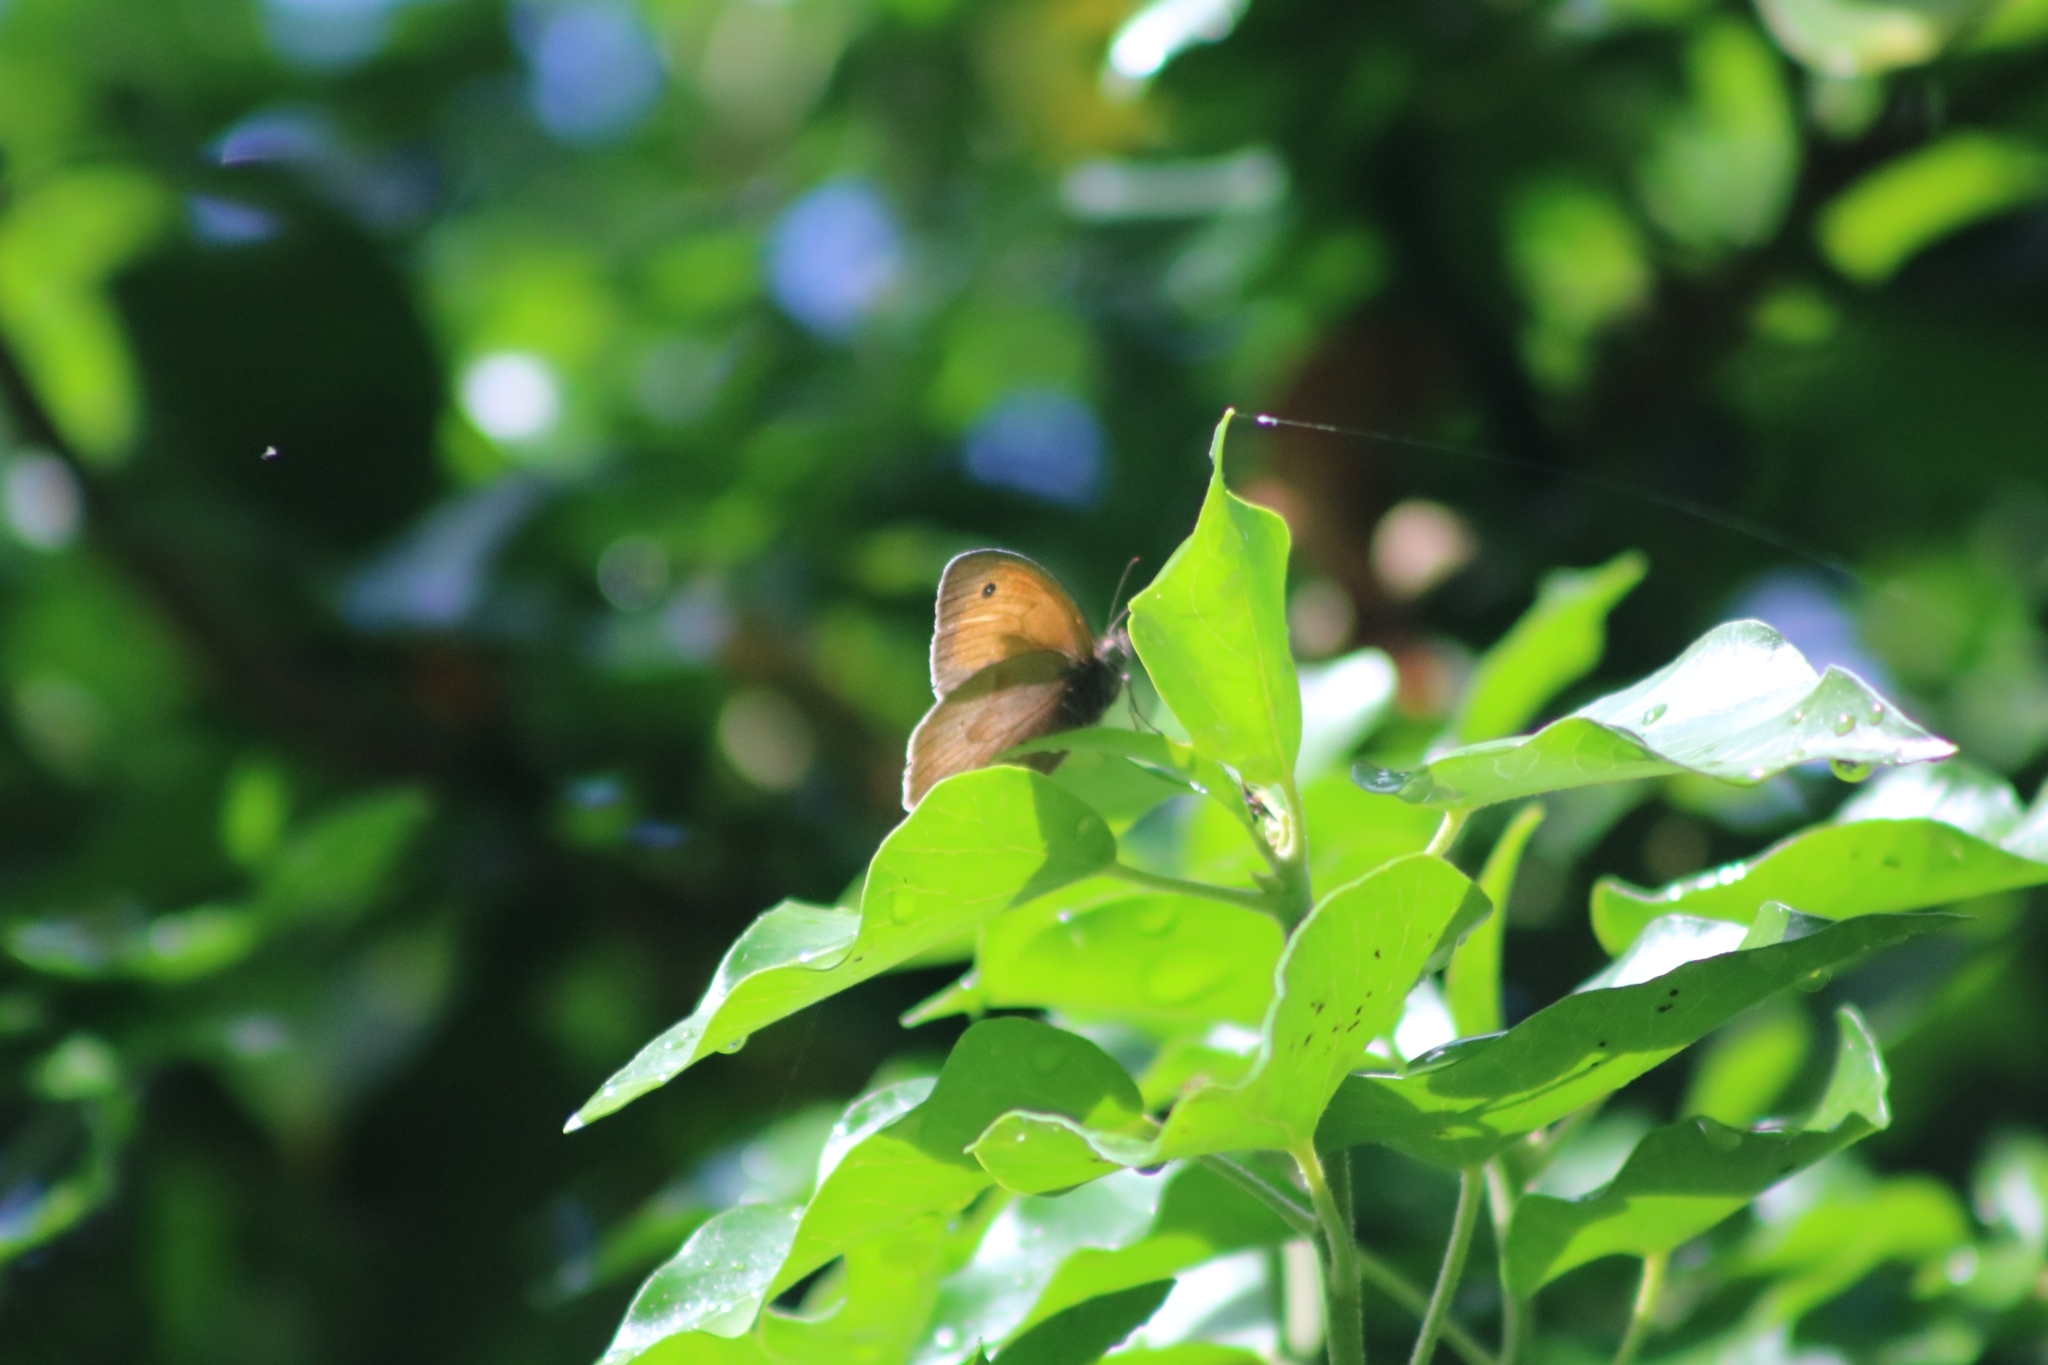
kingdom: Animalia
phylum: Arthropoda
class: Insecta
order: Lepidoptera
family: Nymphalidae
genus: Maniola
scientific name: Maniola jurtina
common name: Meadow brown
